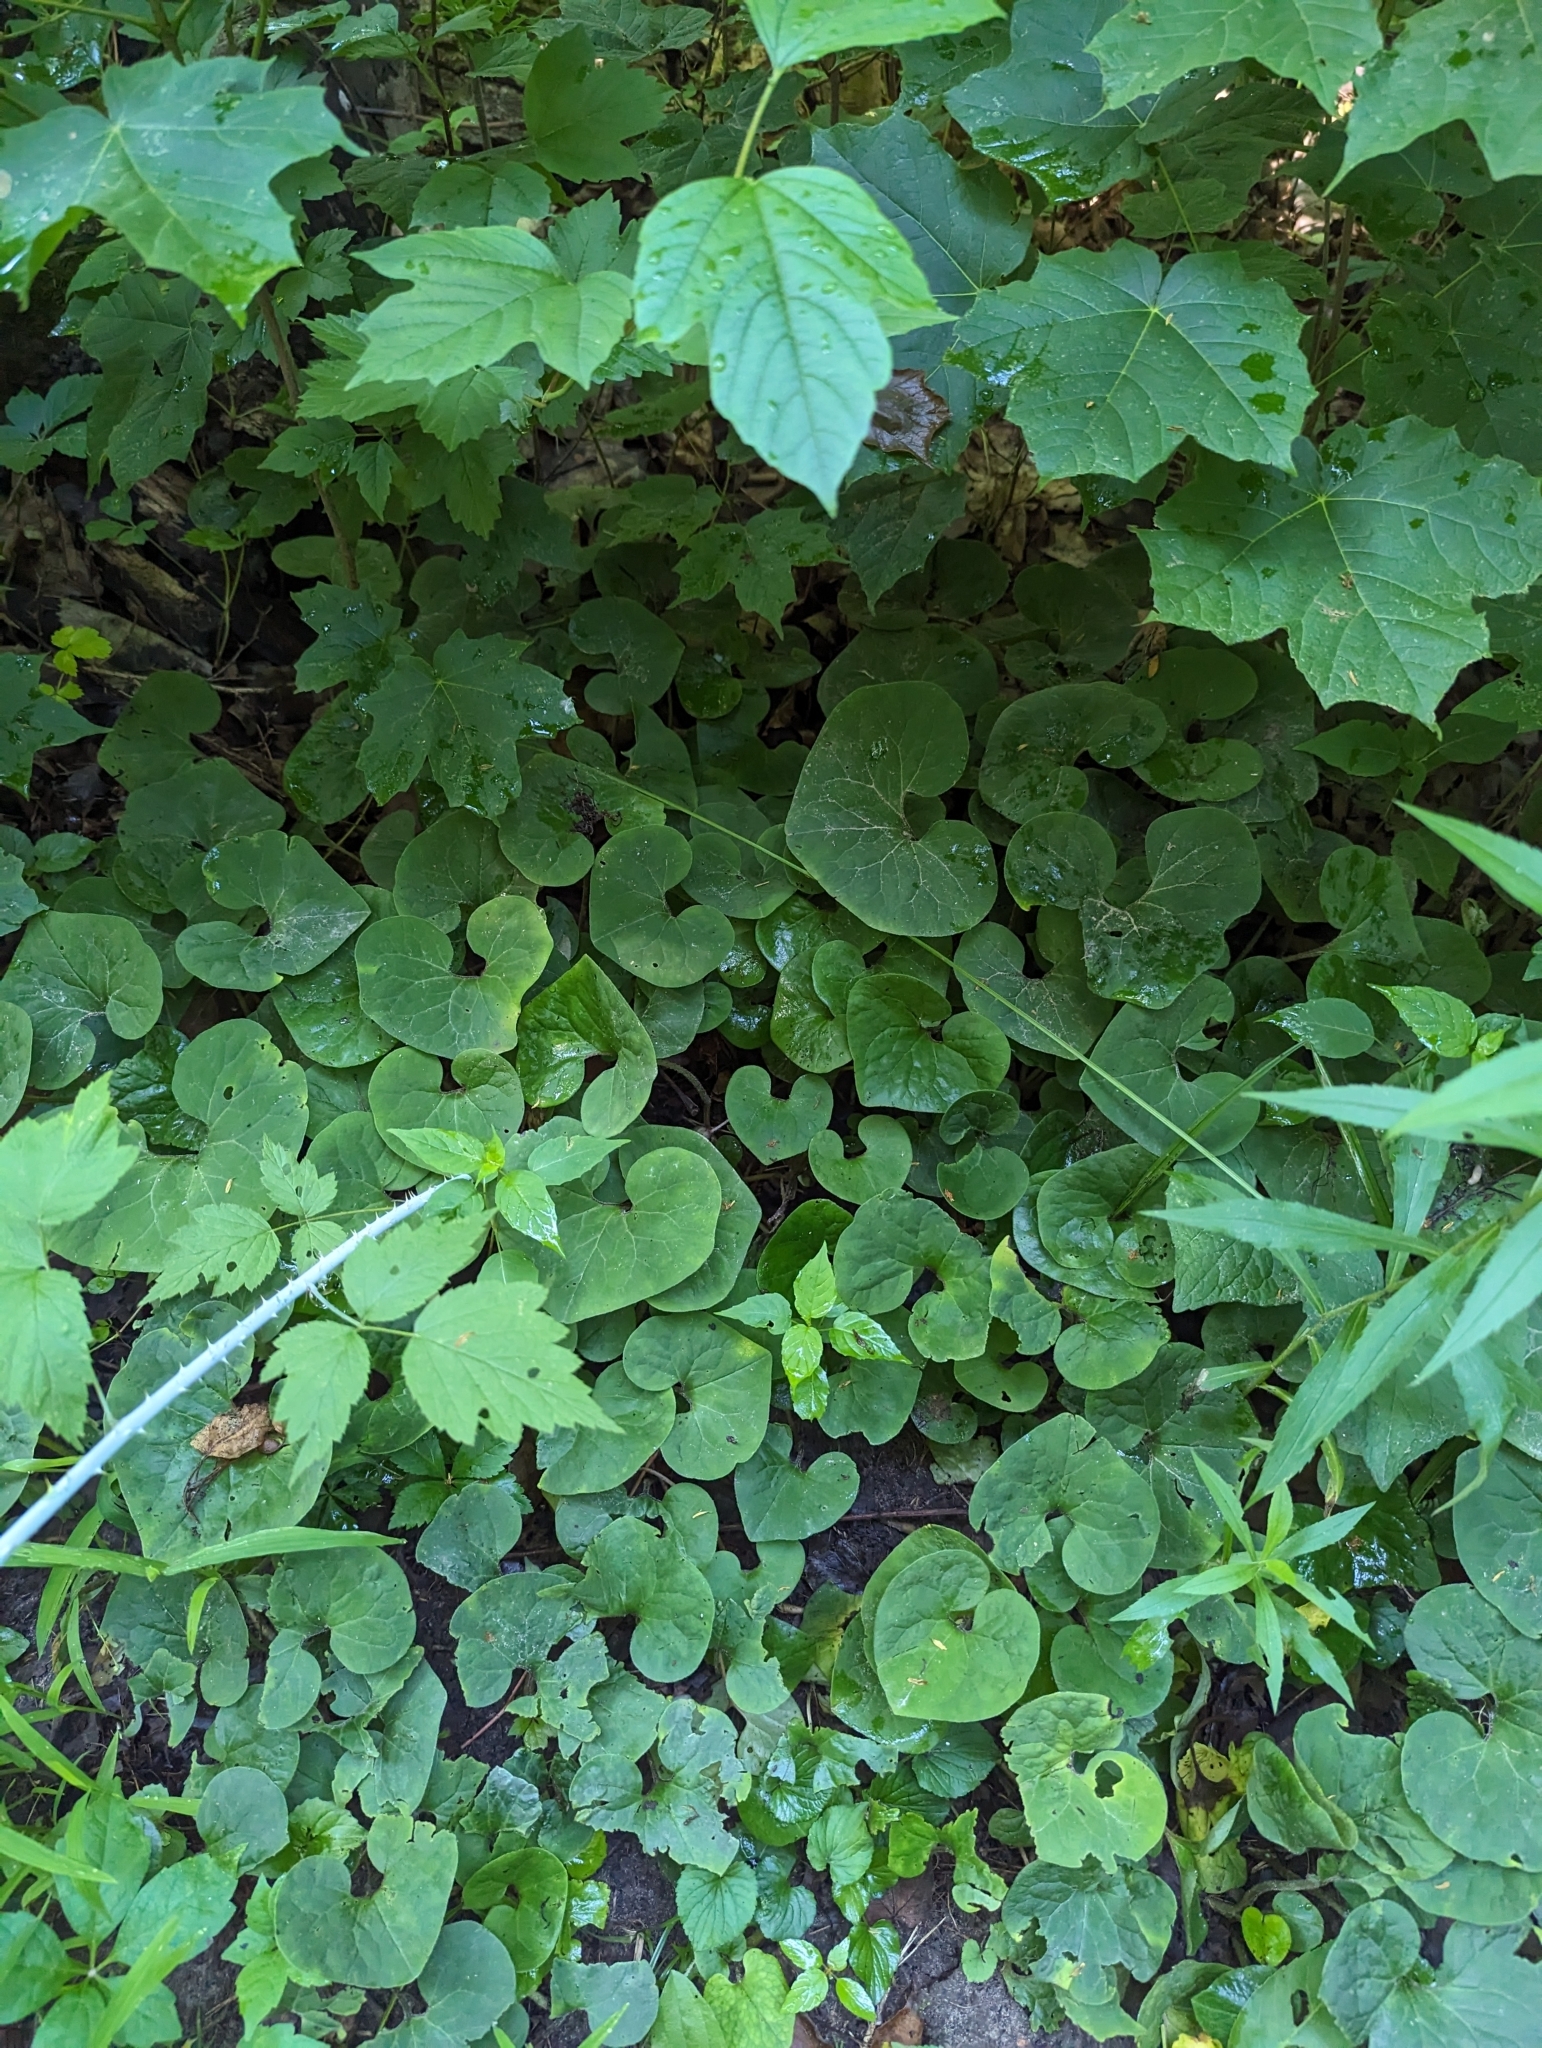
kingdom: Plantae
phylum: Tracheophyta
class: Magnoliopsida
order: Piperales
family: Aristolochiaceae
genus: Asarum
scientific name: Asarum canadense
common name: Wild ginger
